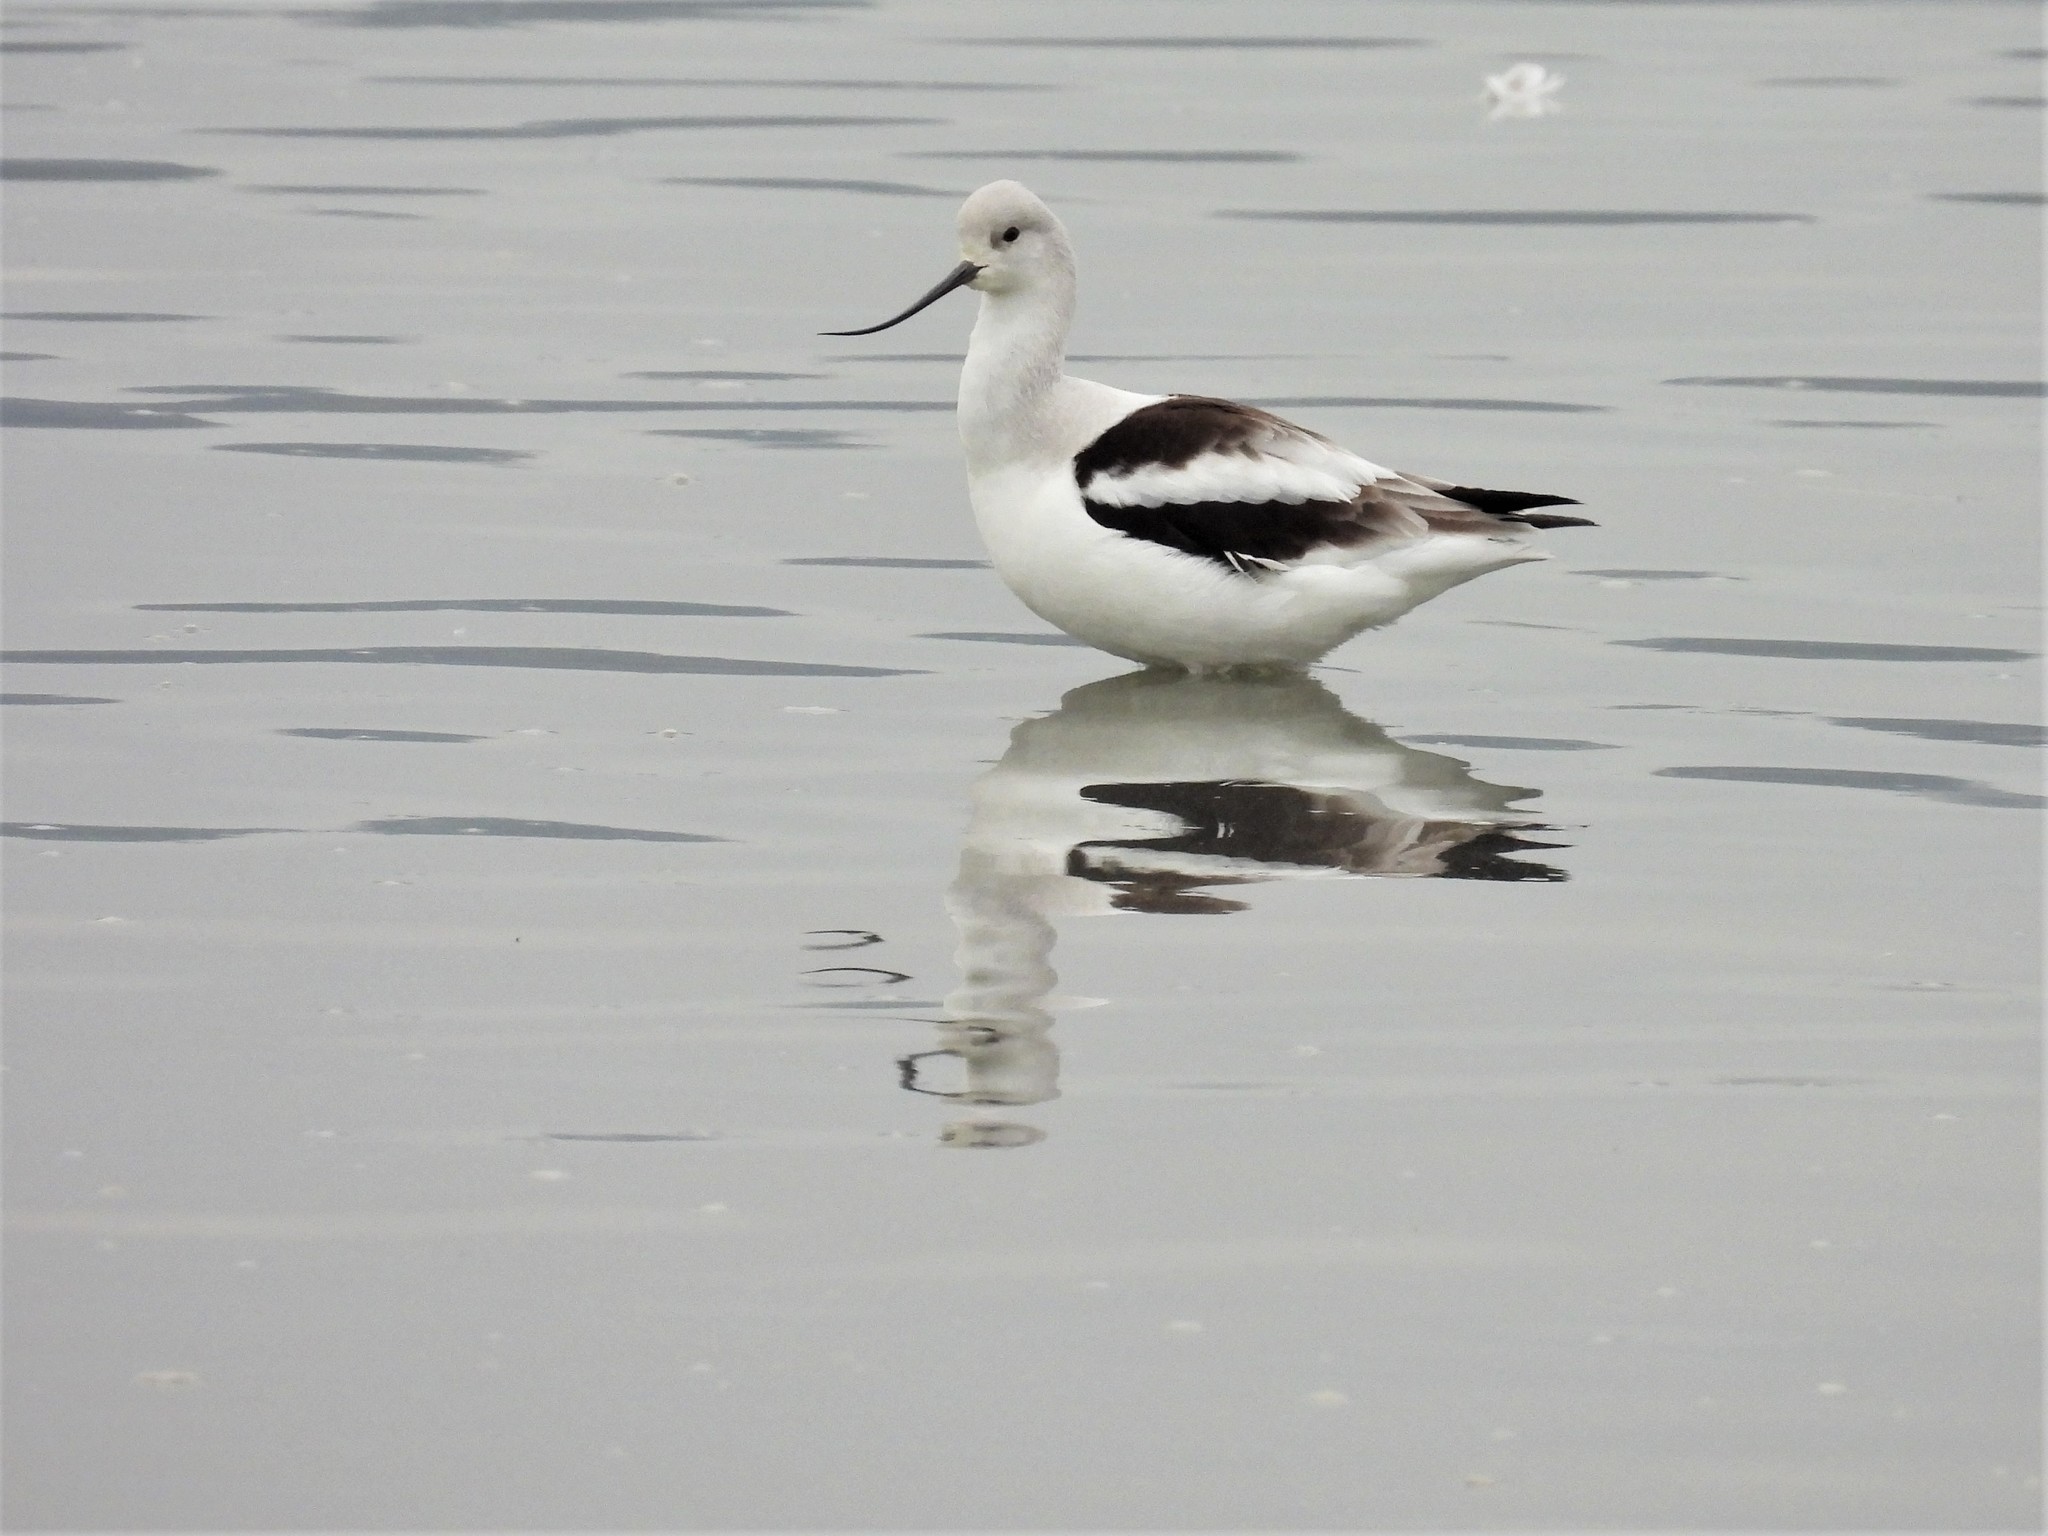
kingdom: Animalia
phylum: Chordata
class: Aves
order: Charadriiformes
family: Recurvirostridae
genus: Recurvirostra
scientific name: Recurvirostra americana
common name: American avocet
